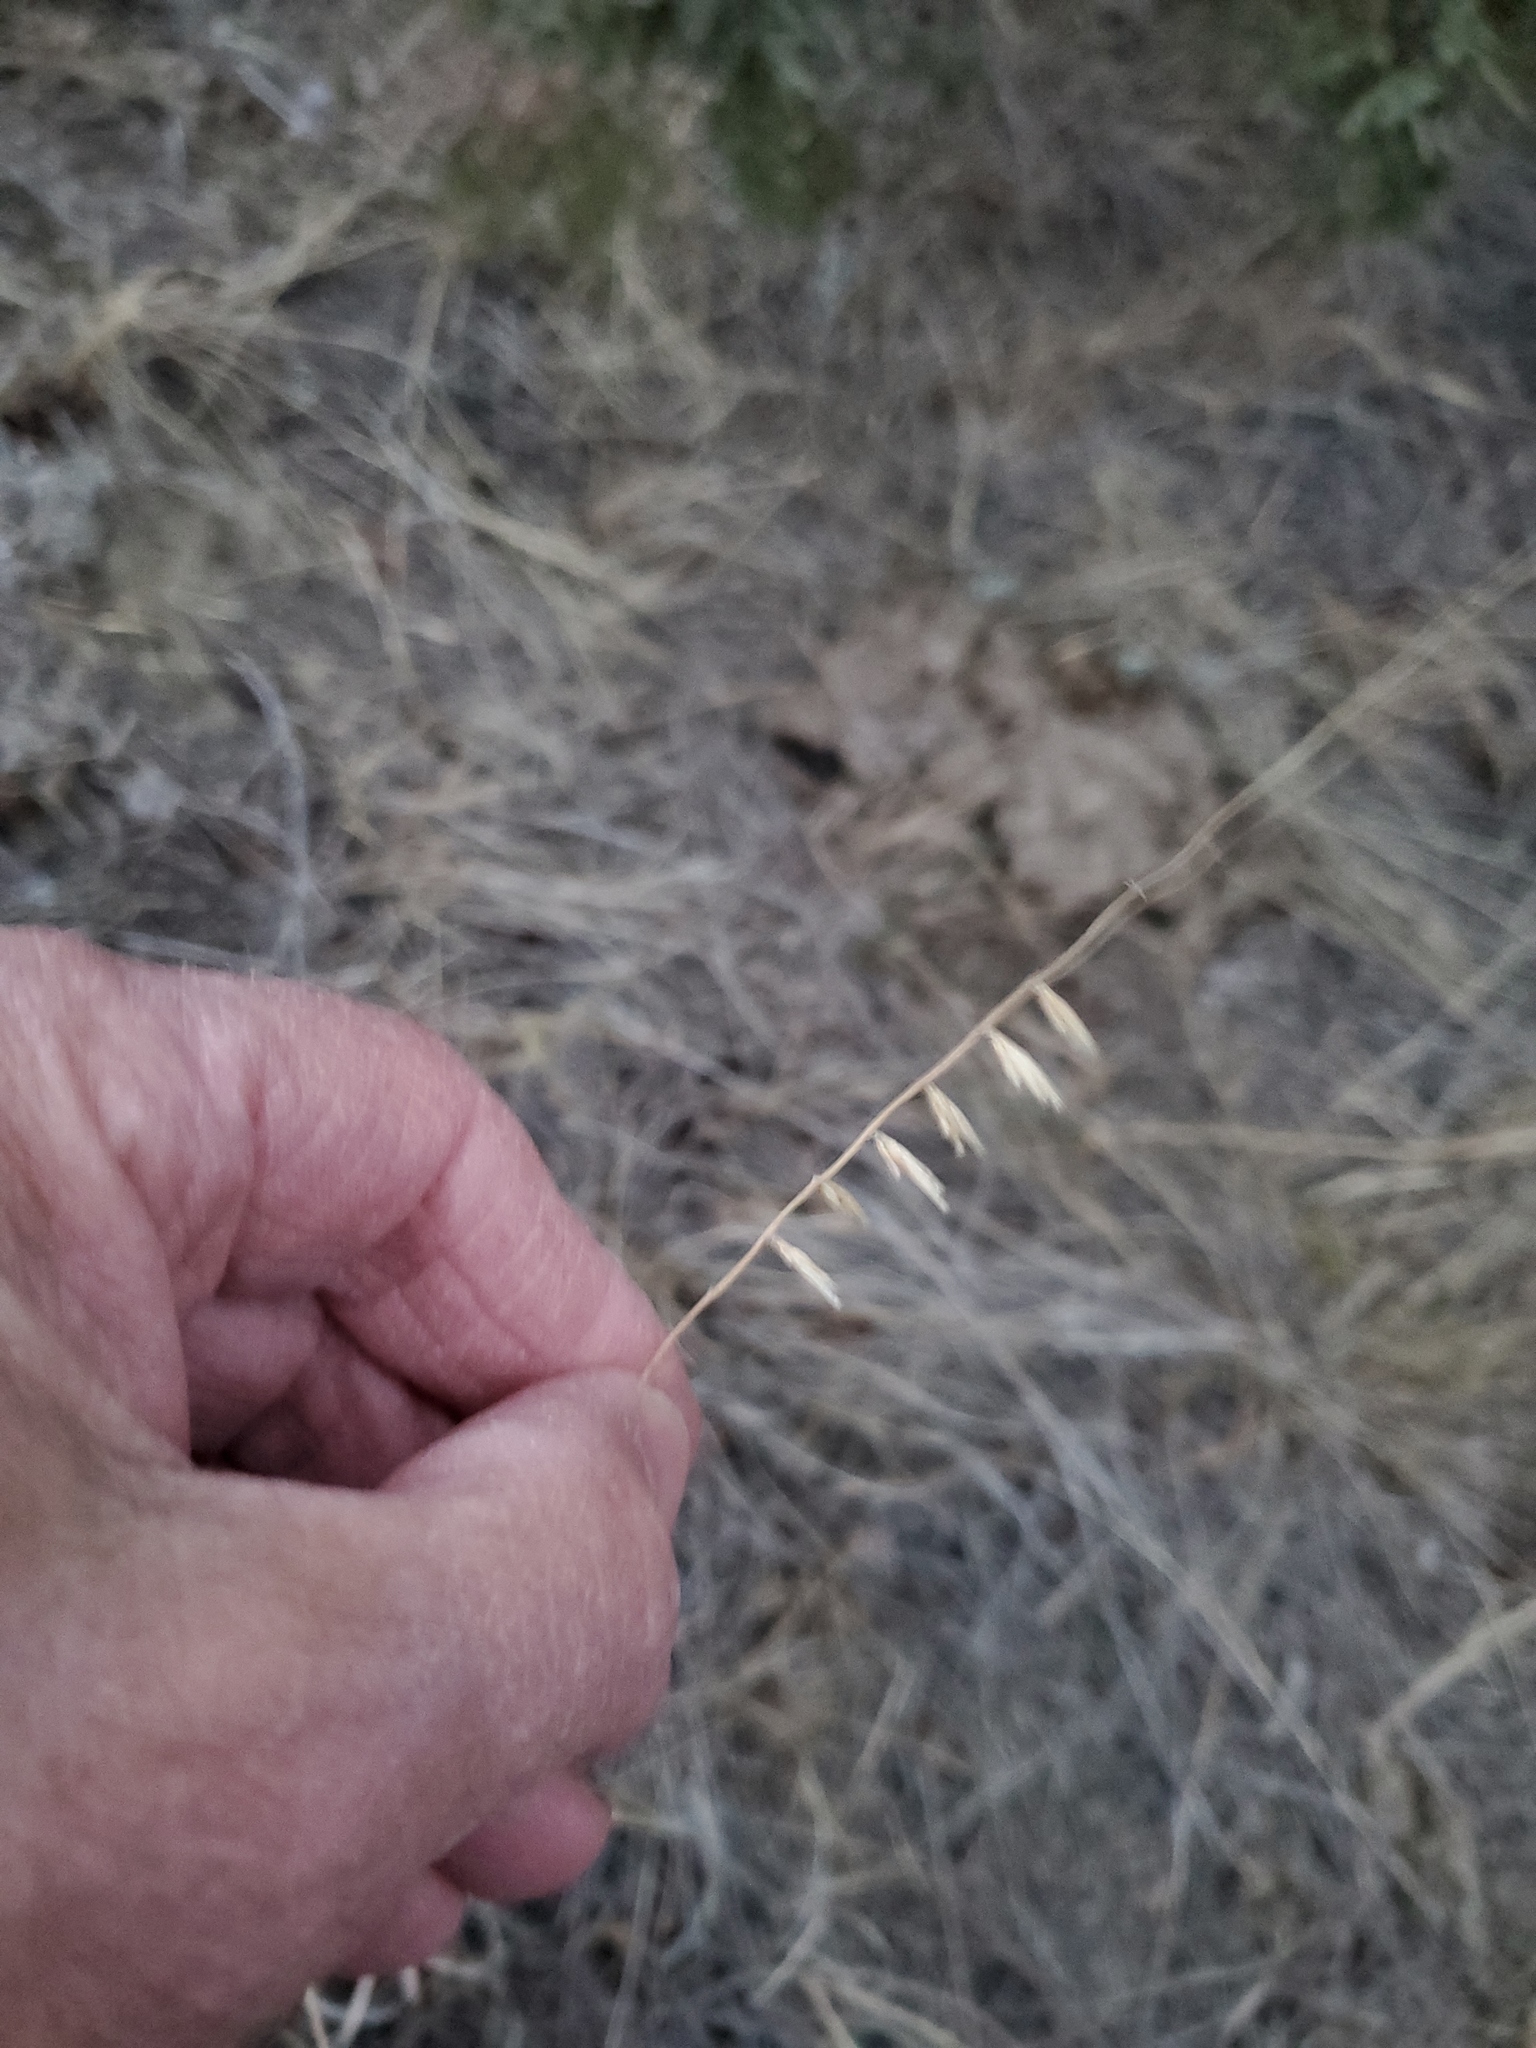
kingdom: Plantae
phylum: Tracheophyta
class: Liliopsida
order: Poales
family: Poaceae
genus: Bouteloua
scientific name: Bouteloua curtipendula
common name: Side-oats grama
